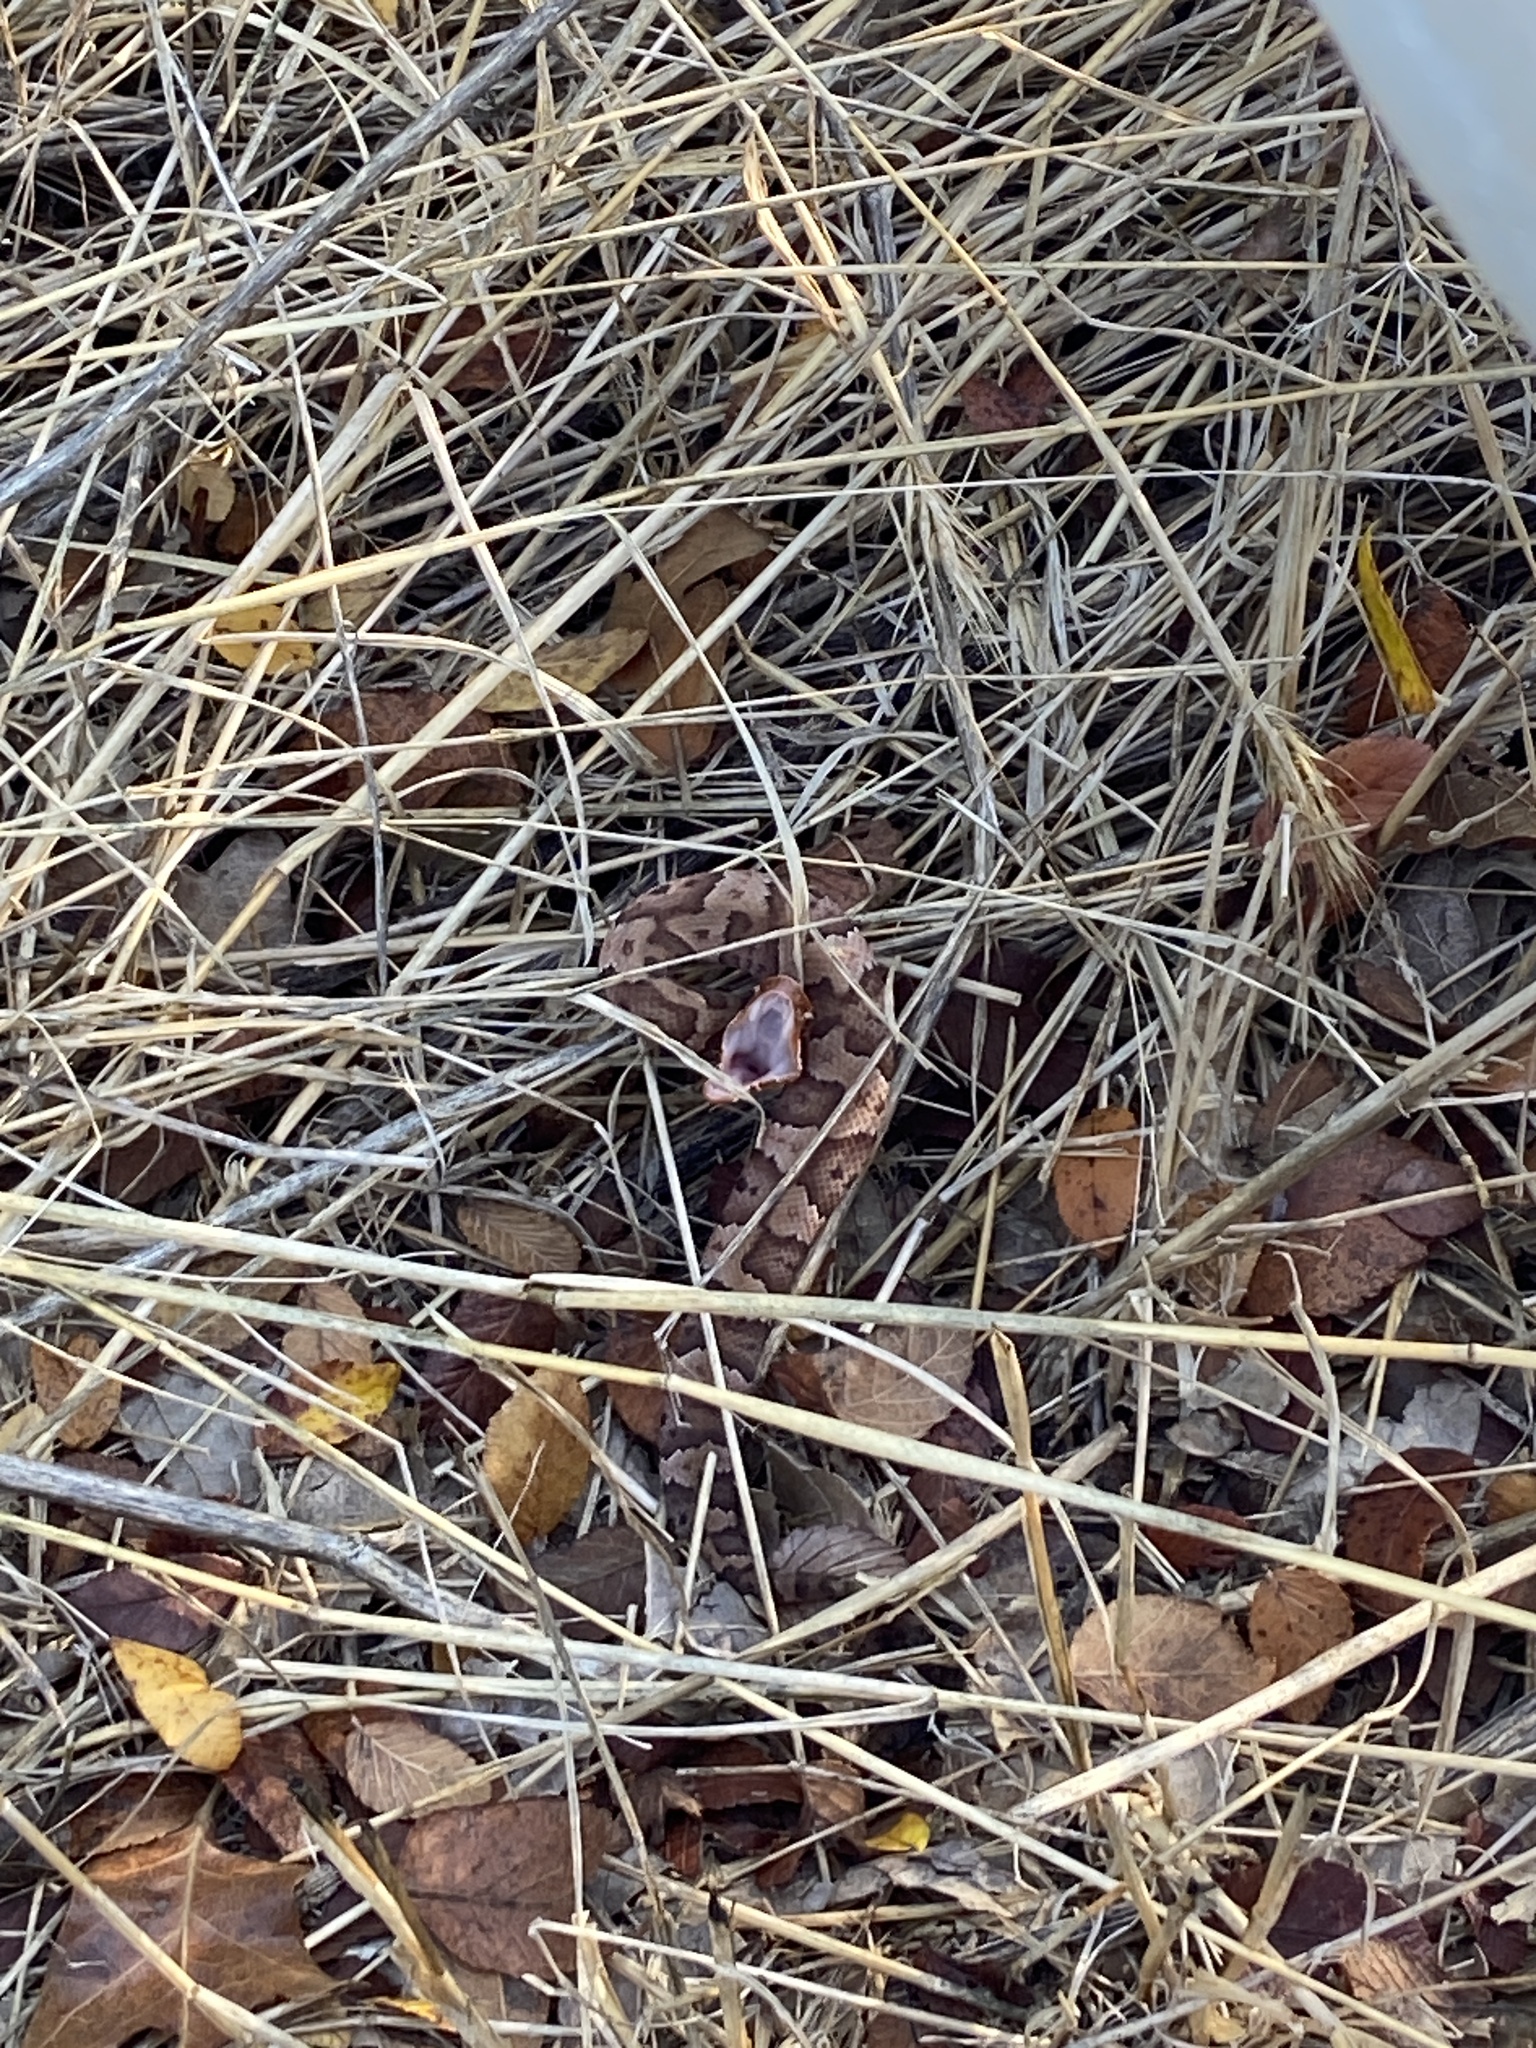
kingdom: Animalia
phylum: Chordata
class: Squamata
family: Viperidae
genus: Agkistrodon
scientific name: Agkistrodon piscivorus
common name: Cottonmouth
